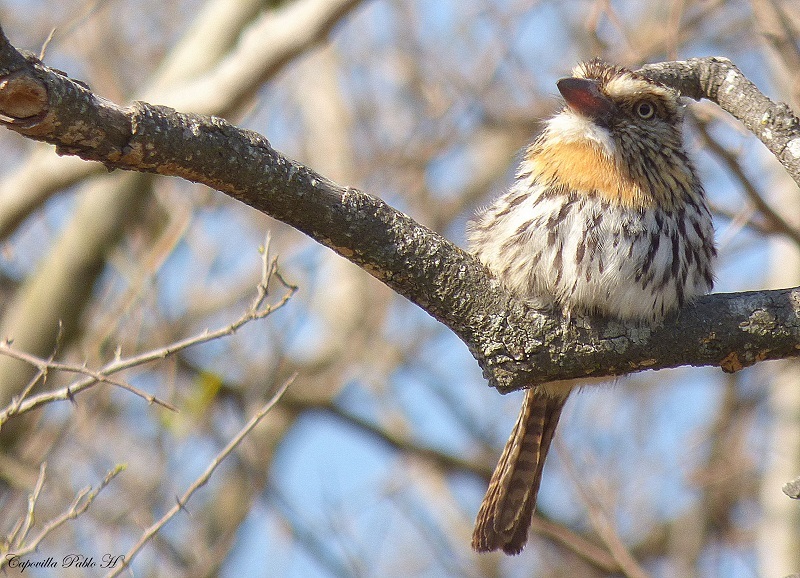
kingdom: Animalia
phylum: Chordata
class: Aves
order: Piciformes
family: Bucconidae
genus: Nystalus
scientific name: Nystalus maculatus
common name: Caatinga puffbird
